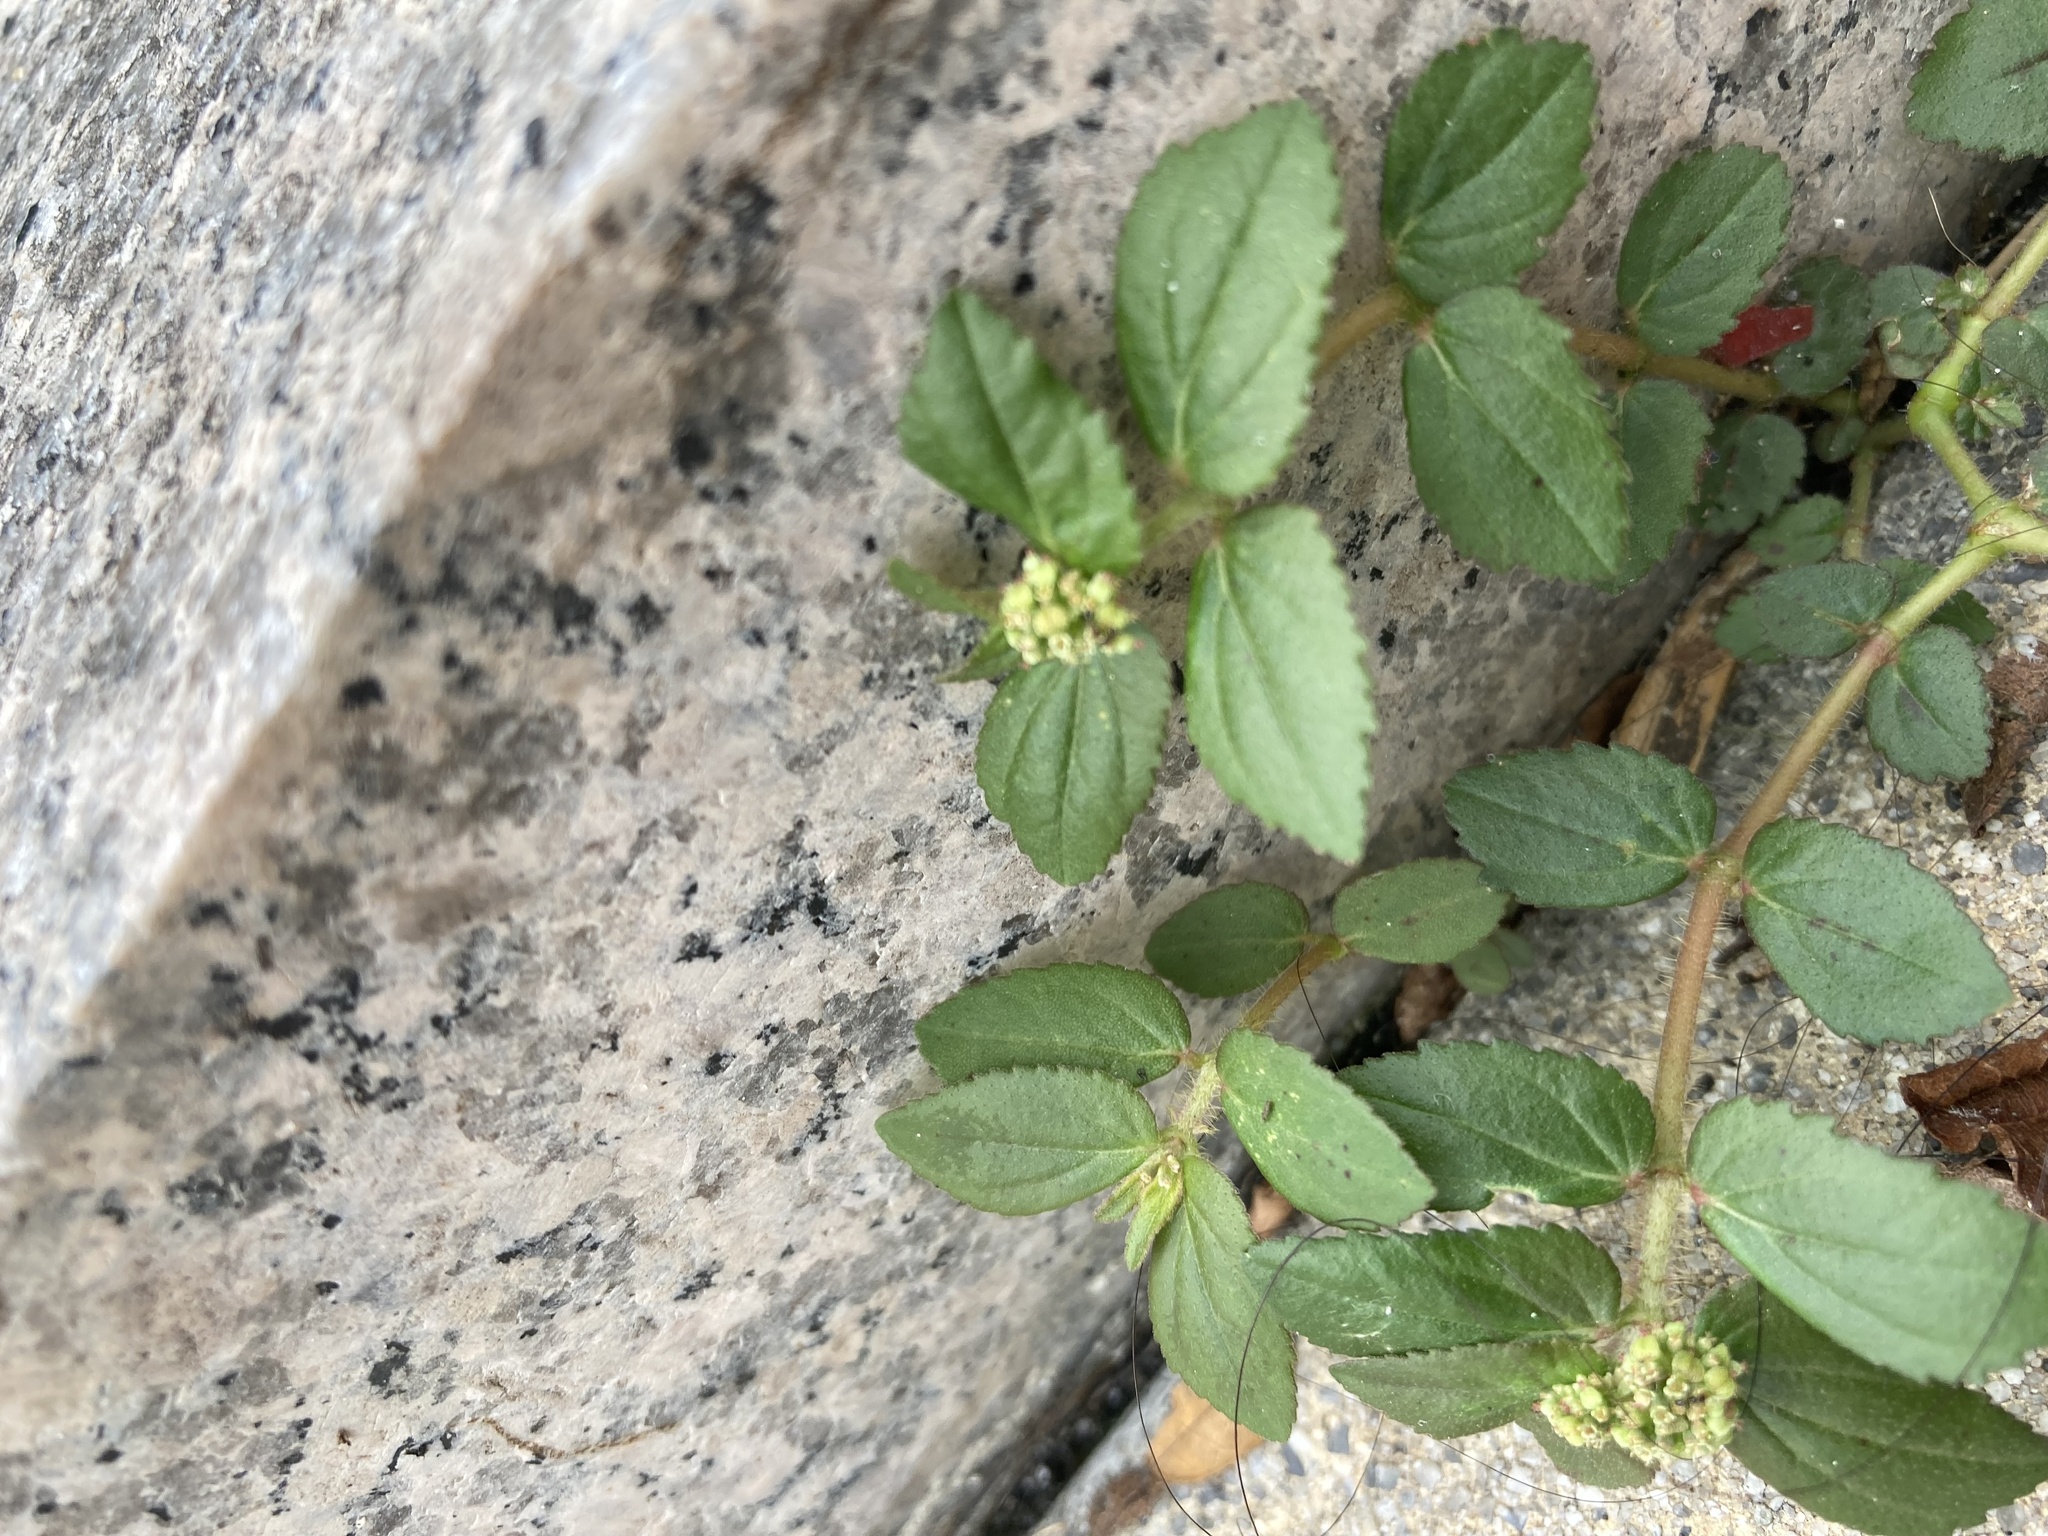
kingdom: Plantae
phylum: Tracheophyta
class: Magnoliopsida
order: Malpighiales
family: Euphorbiaceae
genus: Euphorbia
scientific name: Euphorbia hirta
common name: Pillpod sandmat
